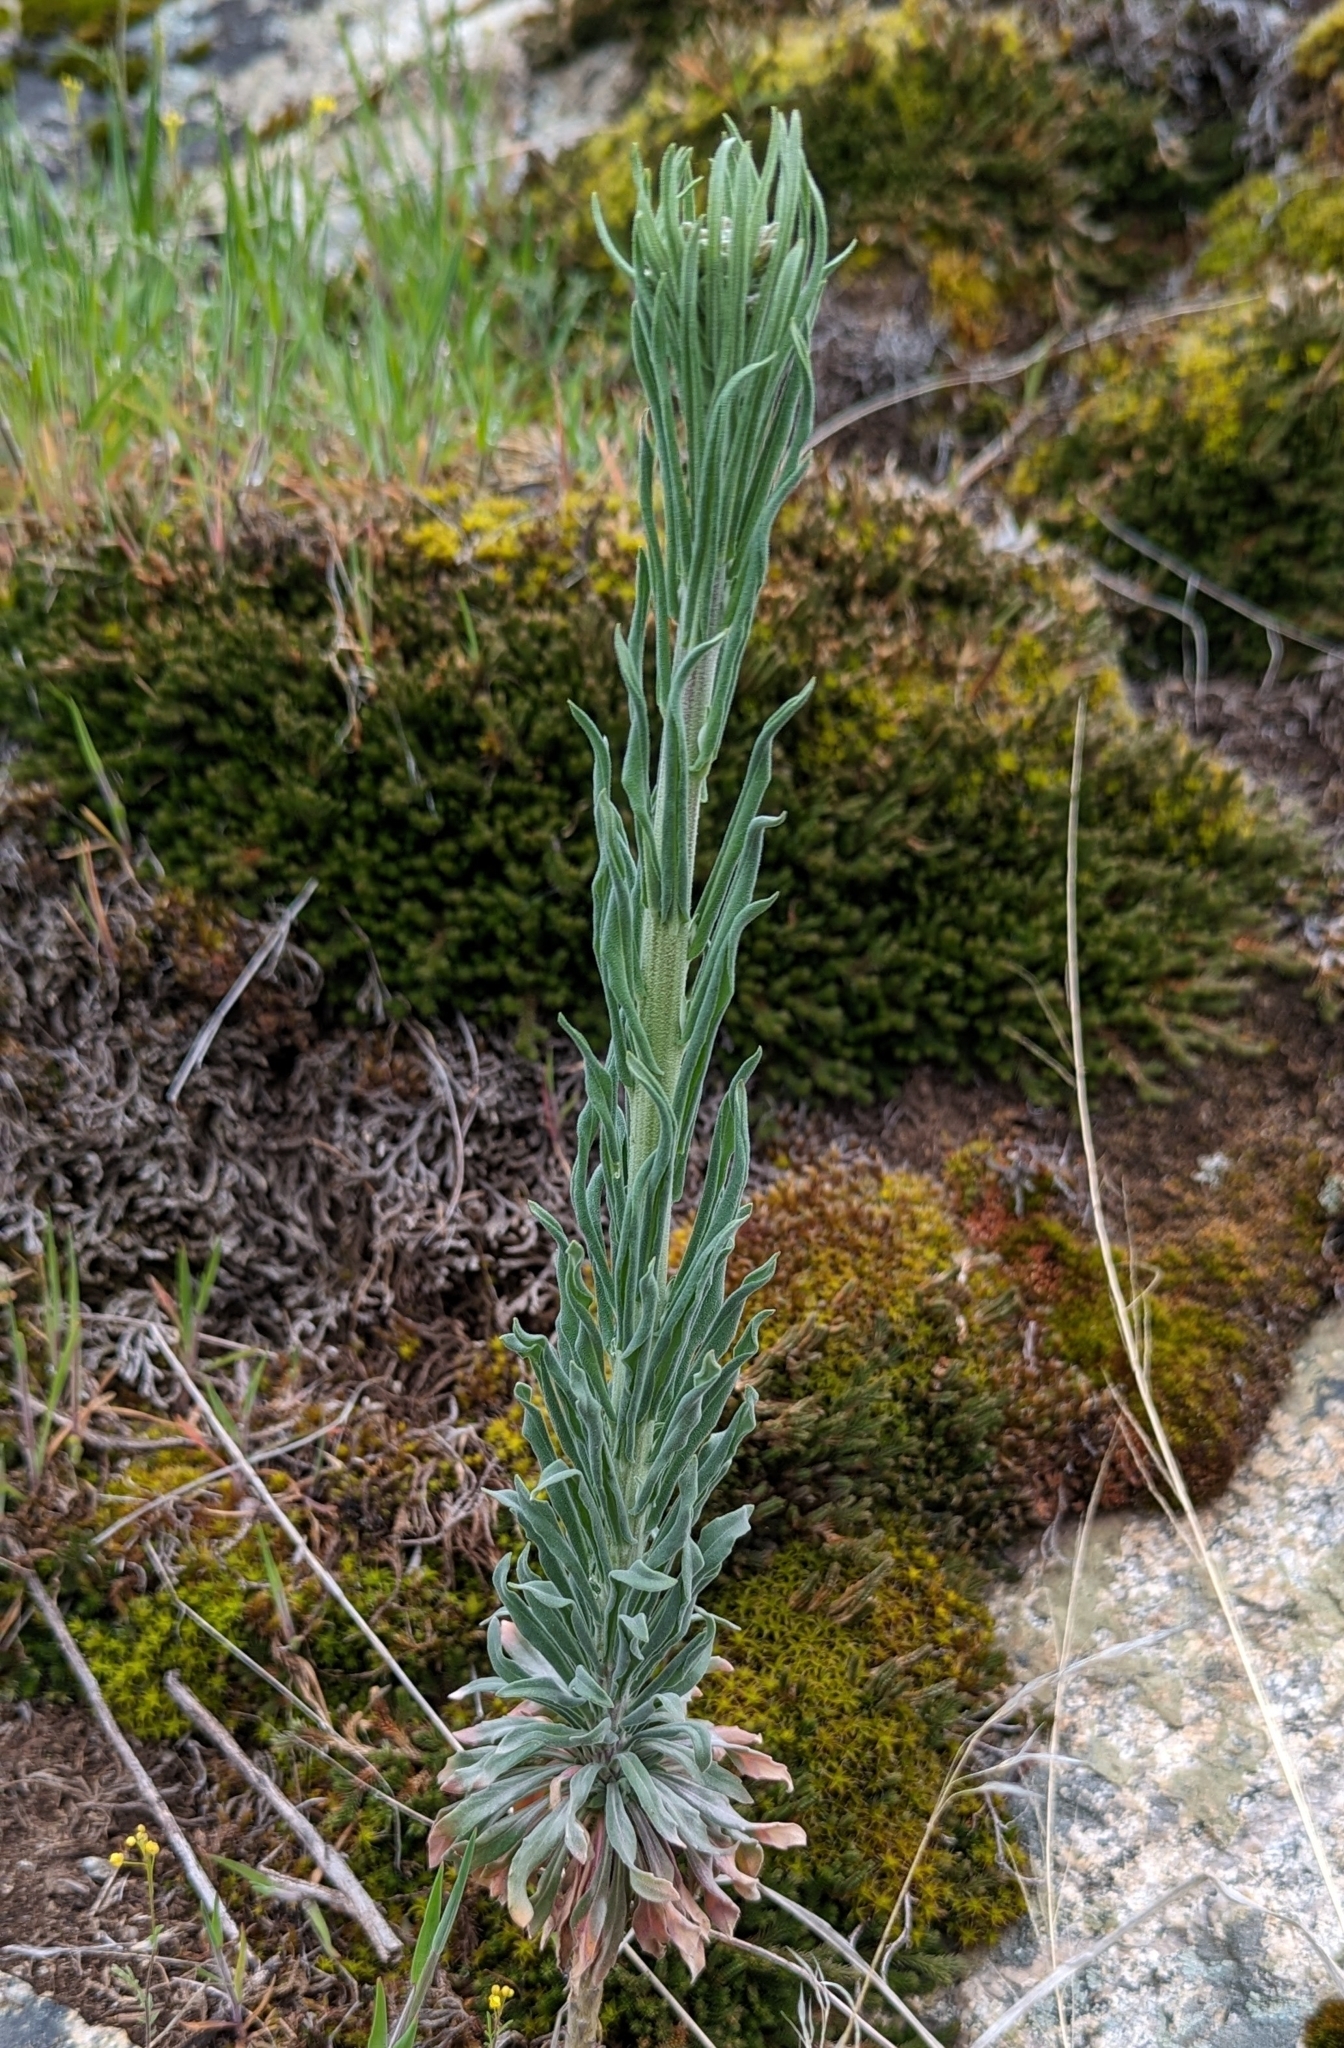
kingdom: Plantae
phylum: Tracheophyta
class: Magnoliopsida
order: Brassicales
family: Brassicaceae
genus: Boechera
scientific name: Boechera retrofracta
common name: Dangling suncress
